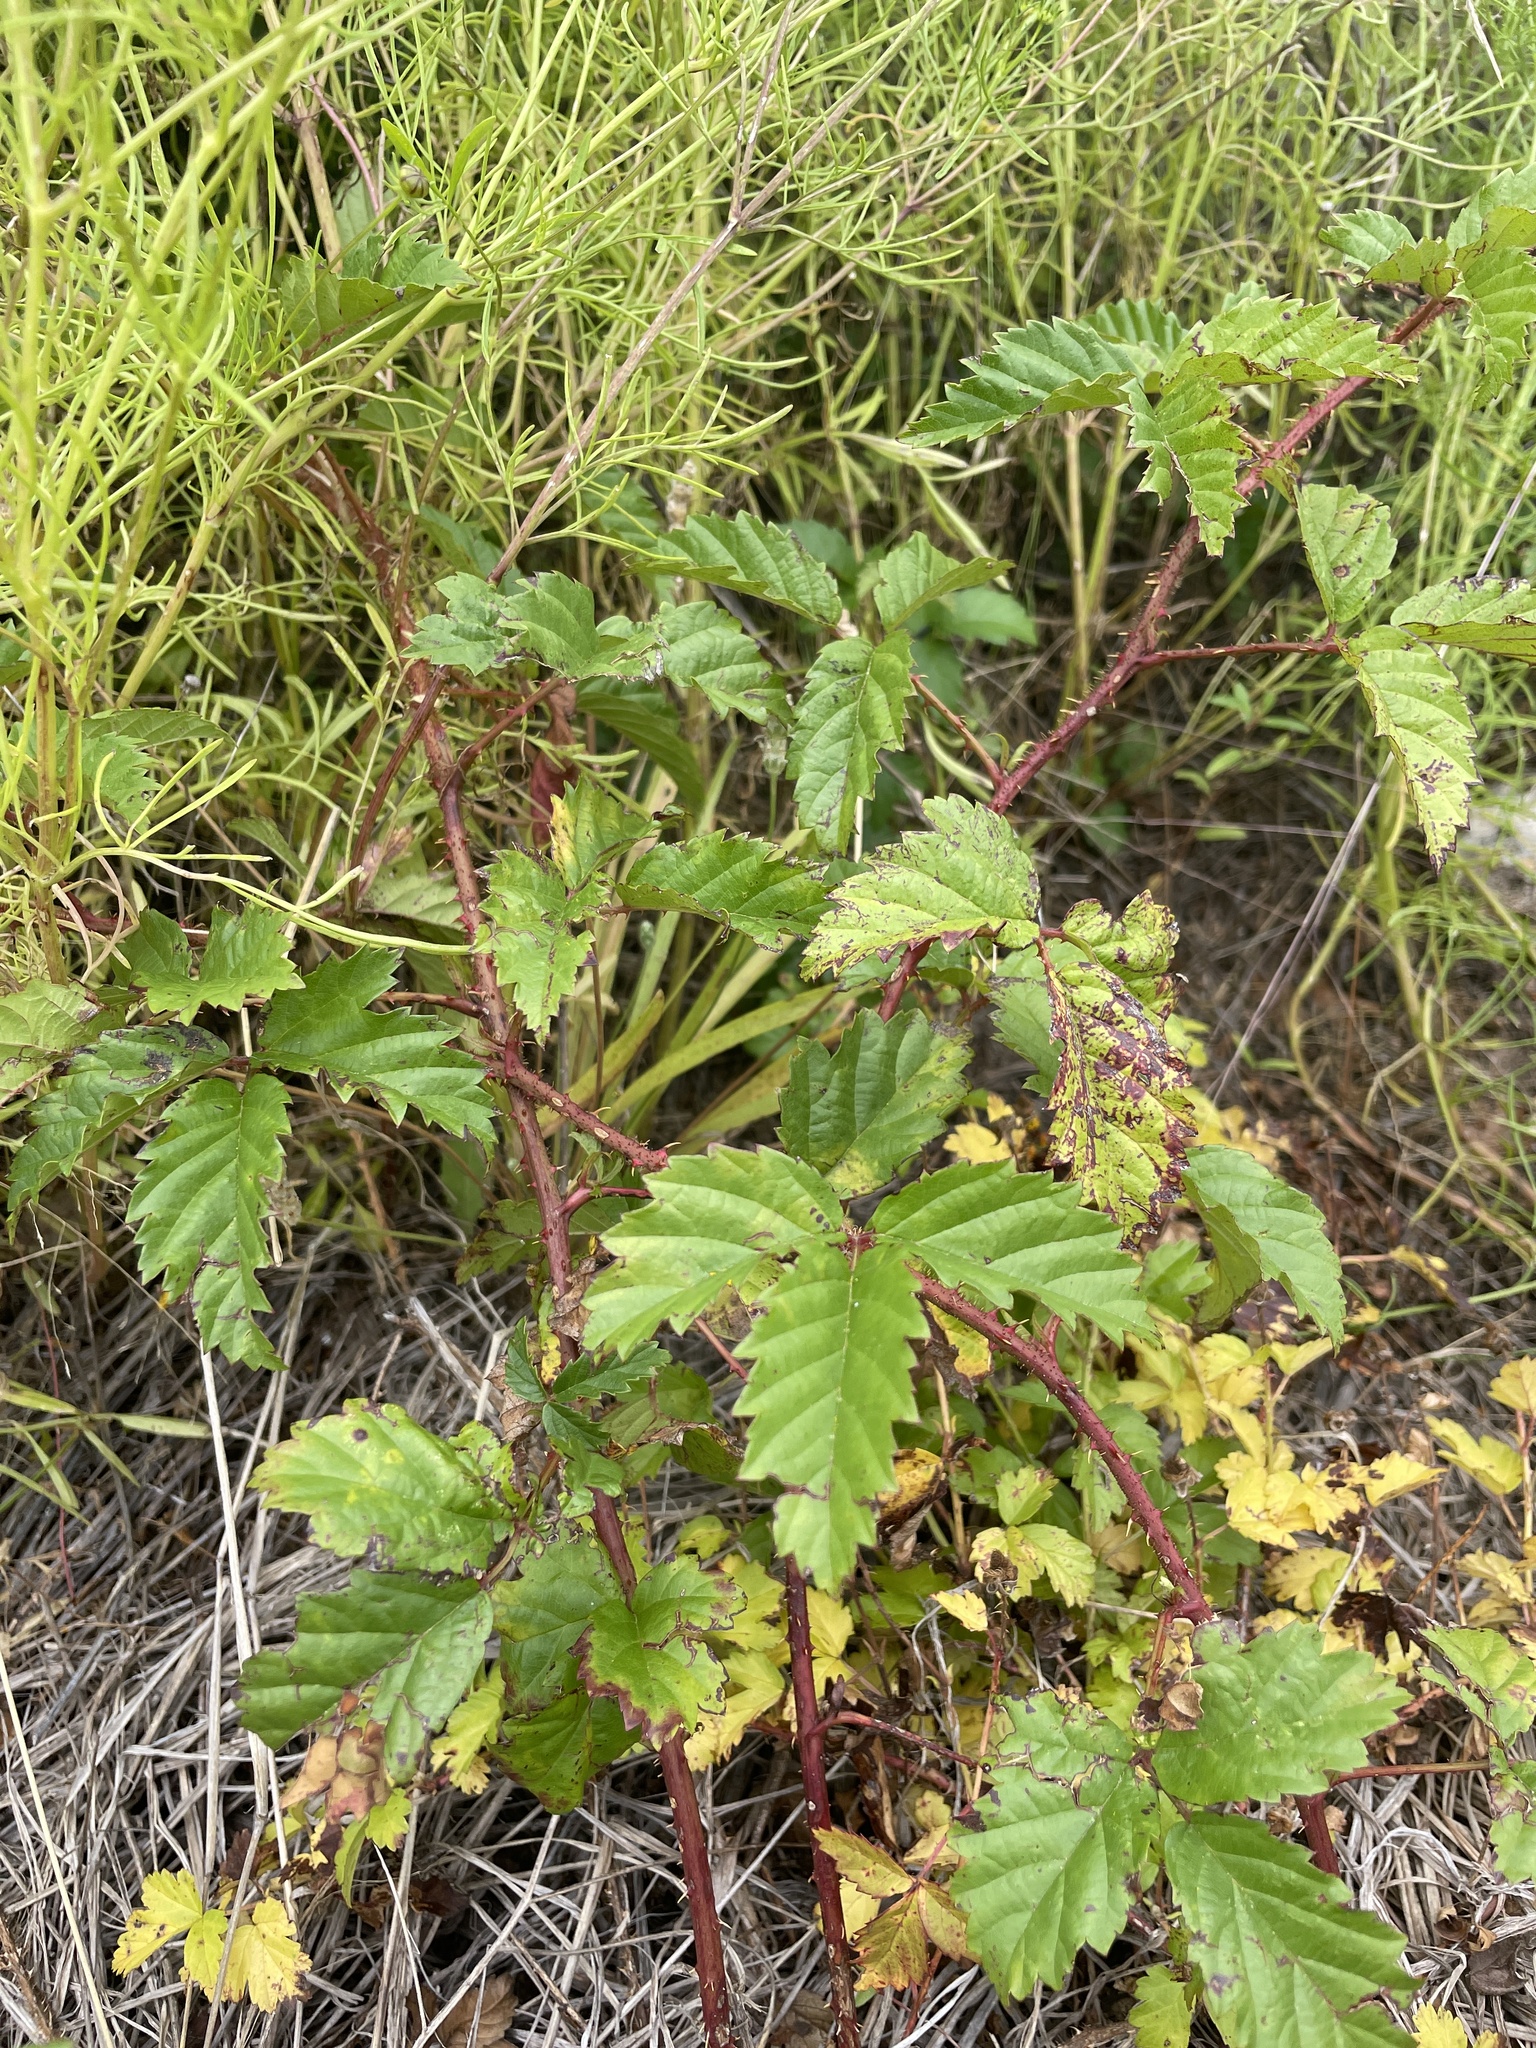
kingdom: Plantae
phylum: Tracheophyta
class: Magnoliopsida
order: Rosales
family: Rosaceae
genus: Rubus
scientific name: Rubus trivialis
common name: Southern dewberry
